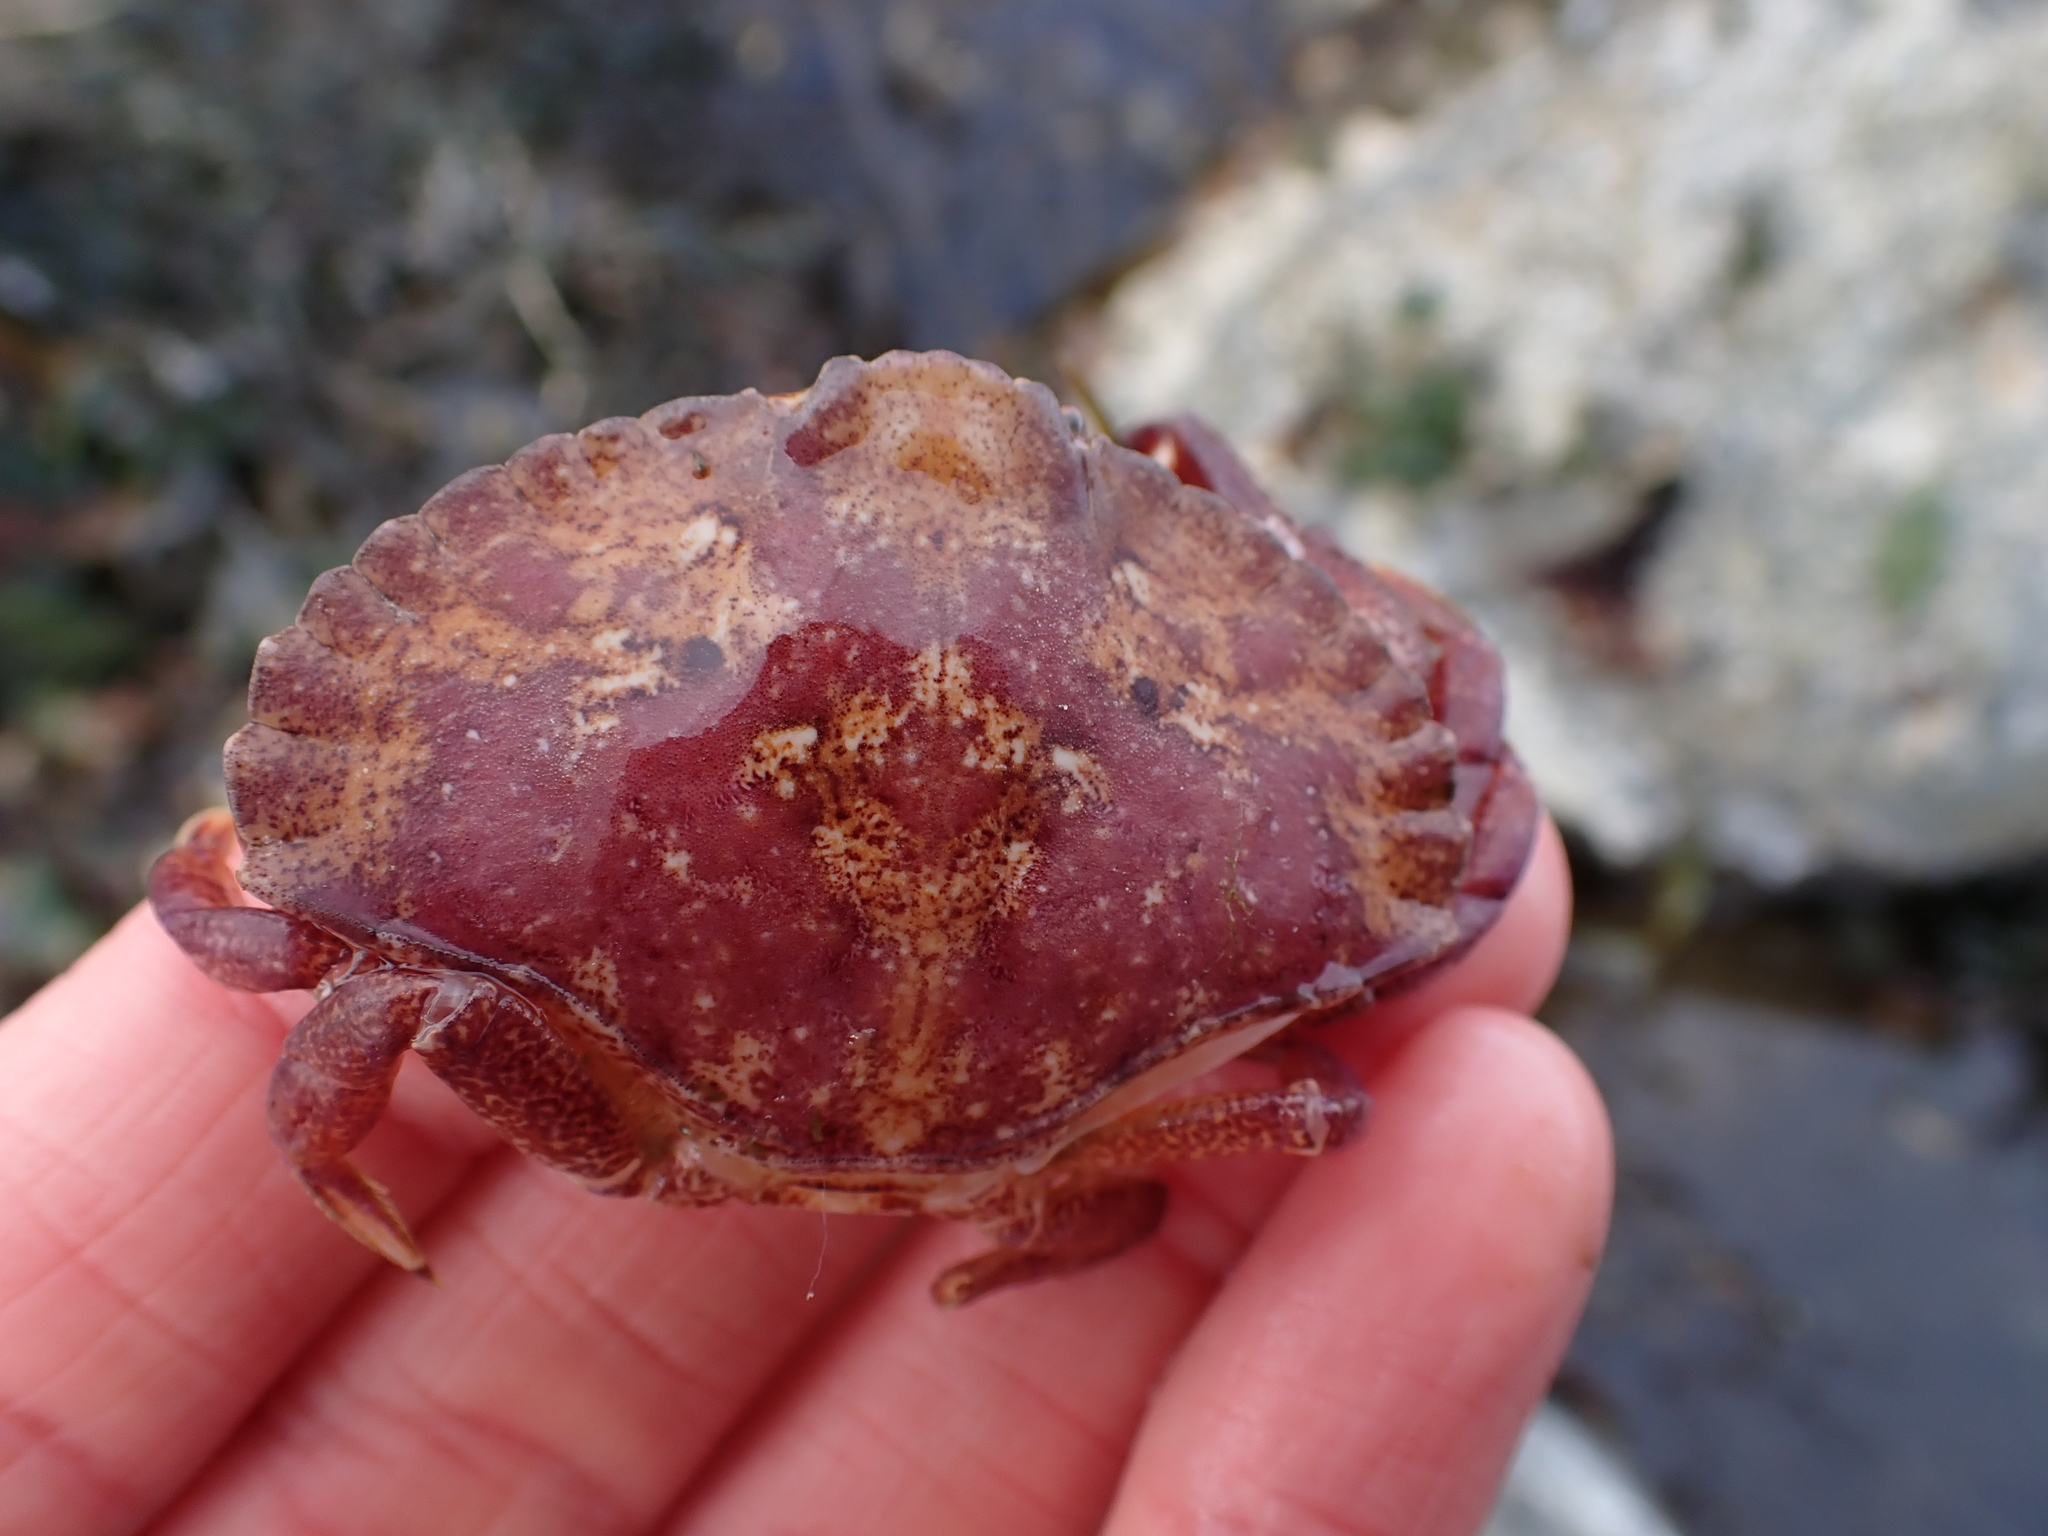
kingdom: Animalia
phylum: Arthropoda
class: Malacostraca
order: Decapoda
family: Cancridae
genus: Cancer
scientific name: Cancer productus
